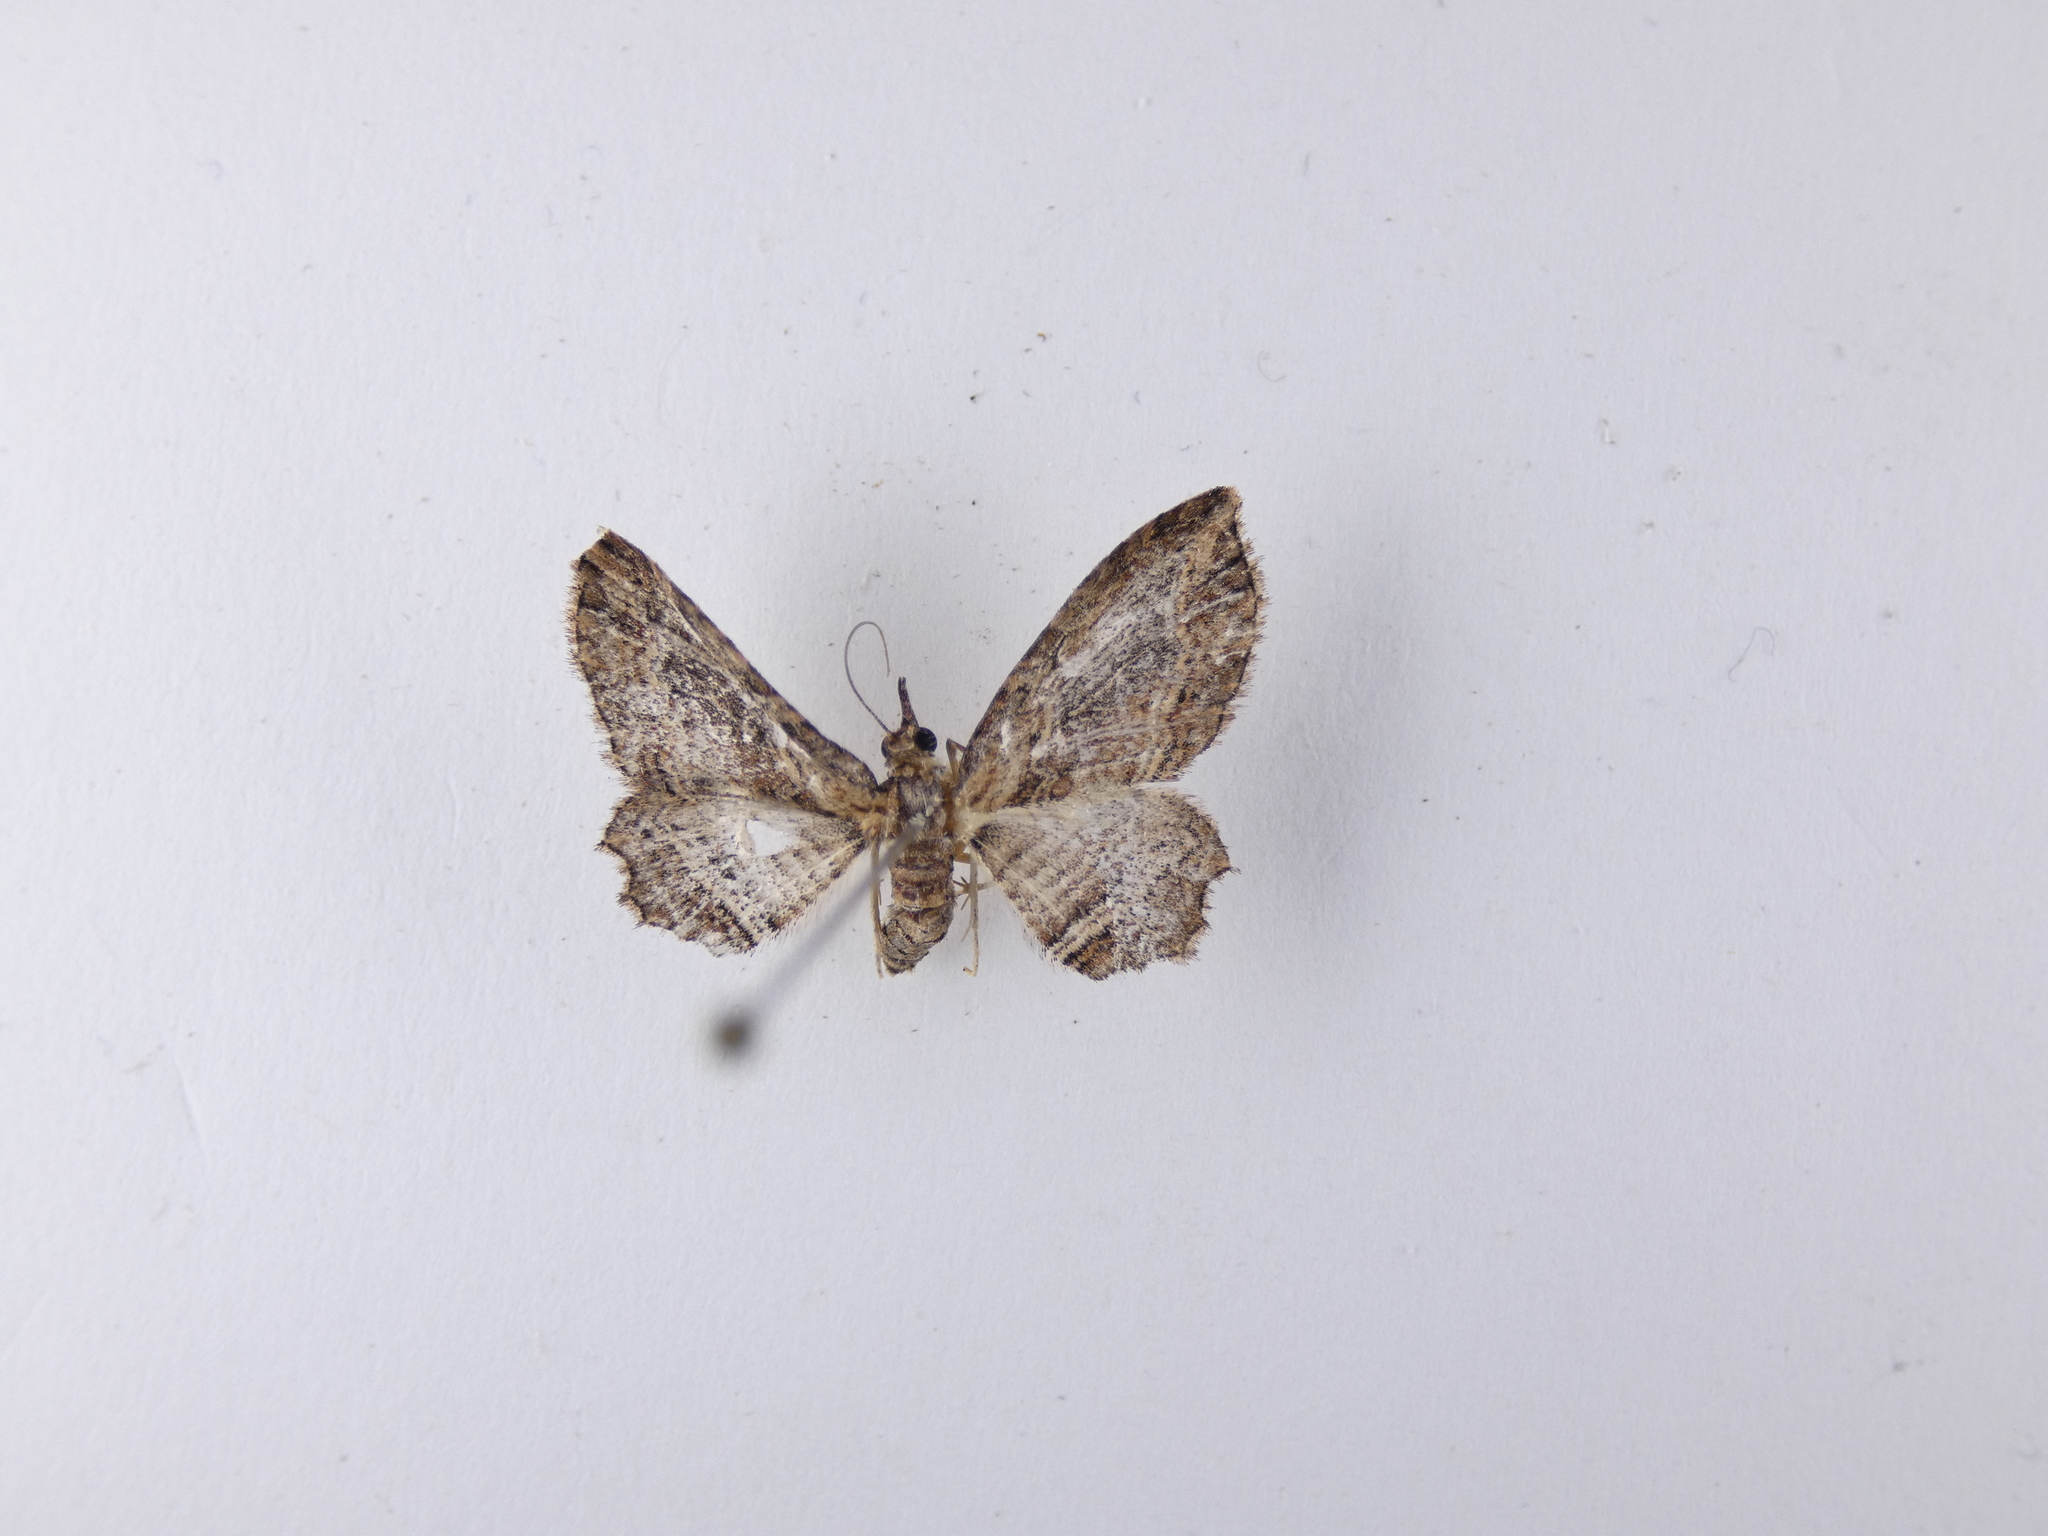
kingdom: Animalia
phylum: Arthropoda
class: Insecta
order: Lepidoptera
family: Geometridae
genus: Chloroclystis
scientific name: Chloroclystis filata
